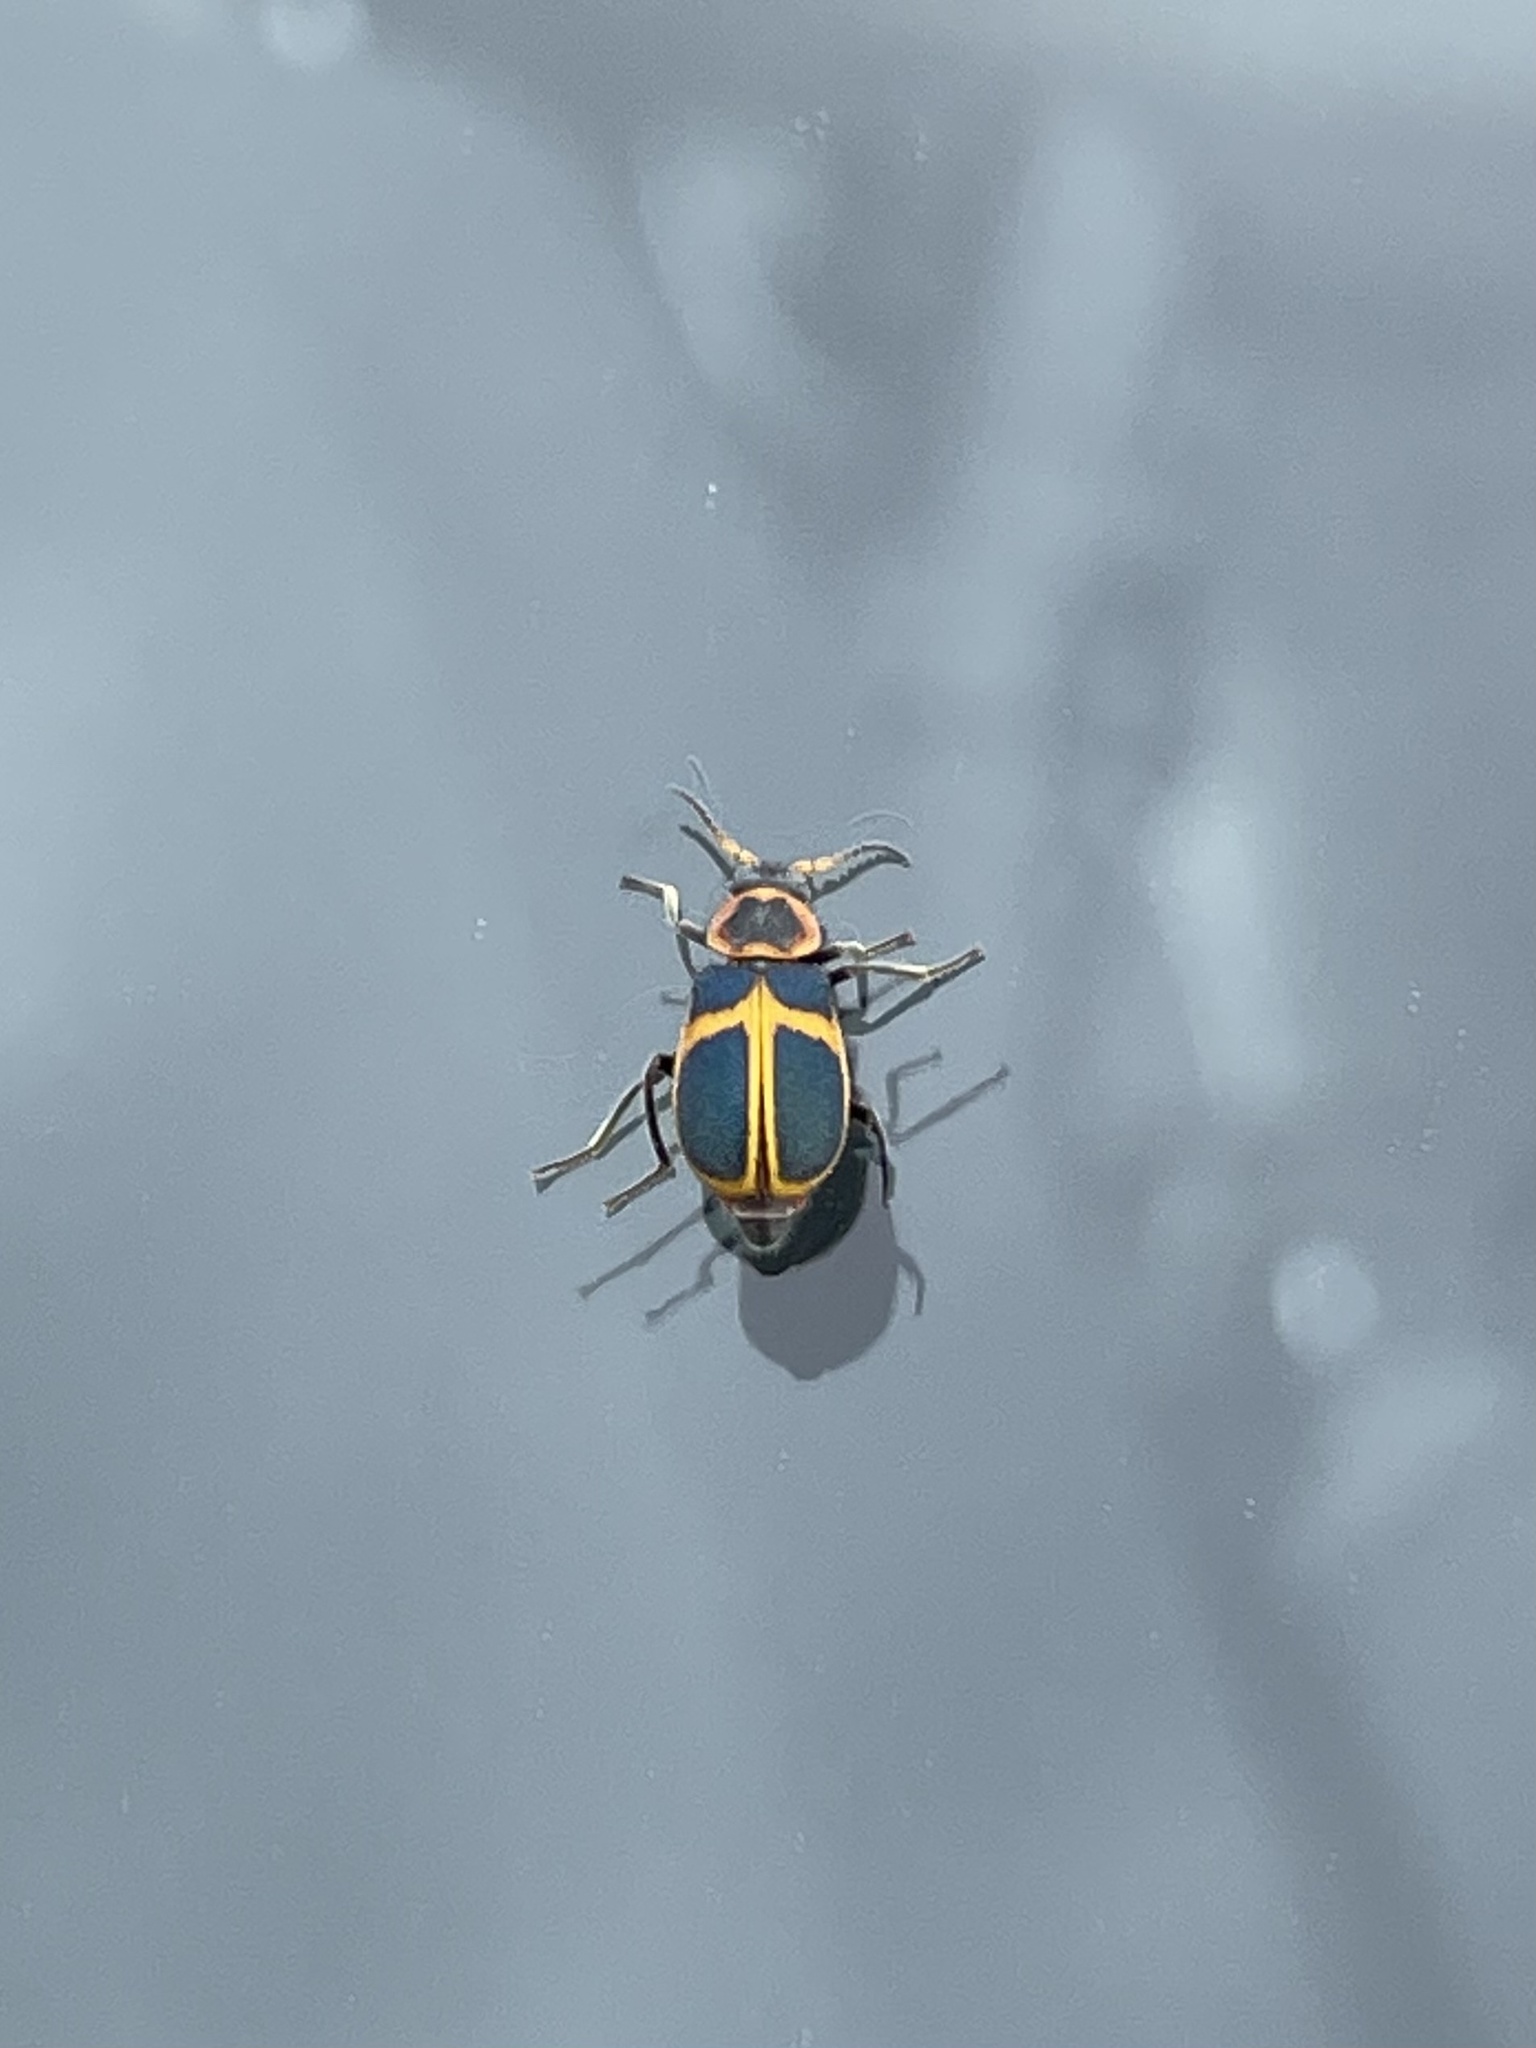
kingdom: Animalia
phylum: Arthropoda
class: Insecta
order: Coleoptera
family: Melyridae
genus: Collops
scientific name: Collops
